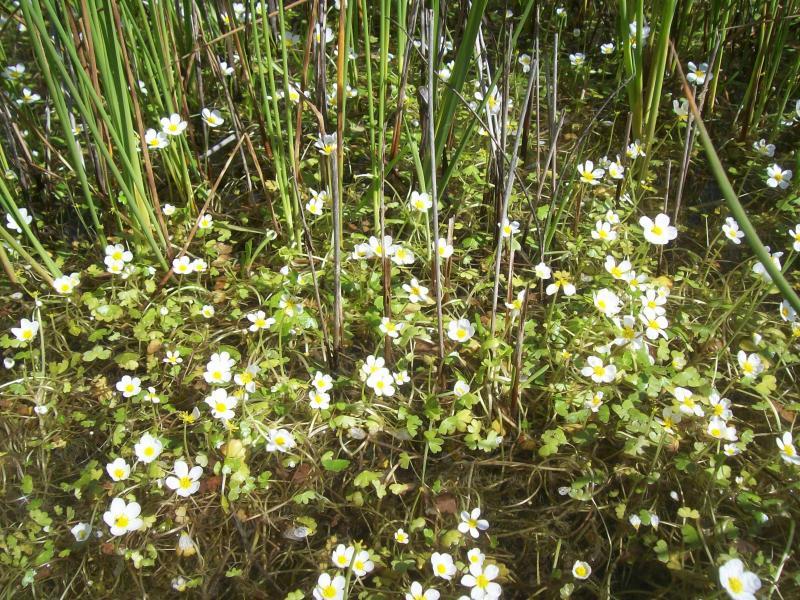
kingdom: Plantae
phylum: Tracheophyta
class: Magnoliopsida
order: Ranunculales
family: Ranunculaceae
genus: Ranunculus
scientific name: Ranunculus peltatus
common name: Pond water-crowfoot
